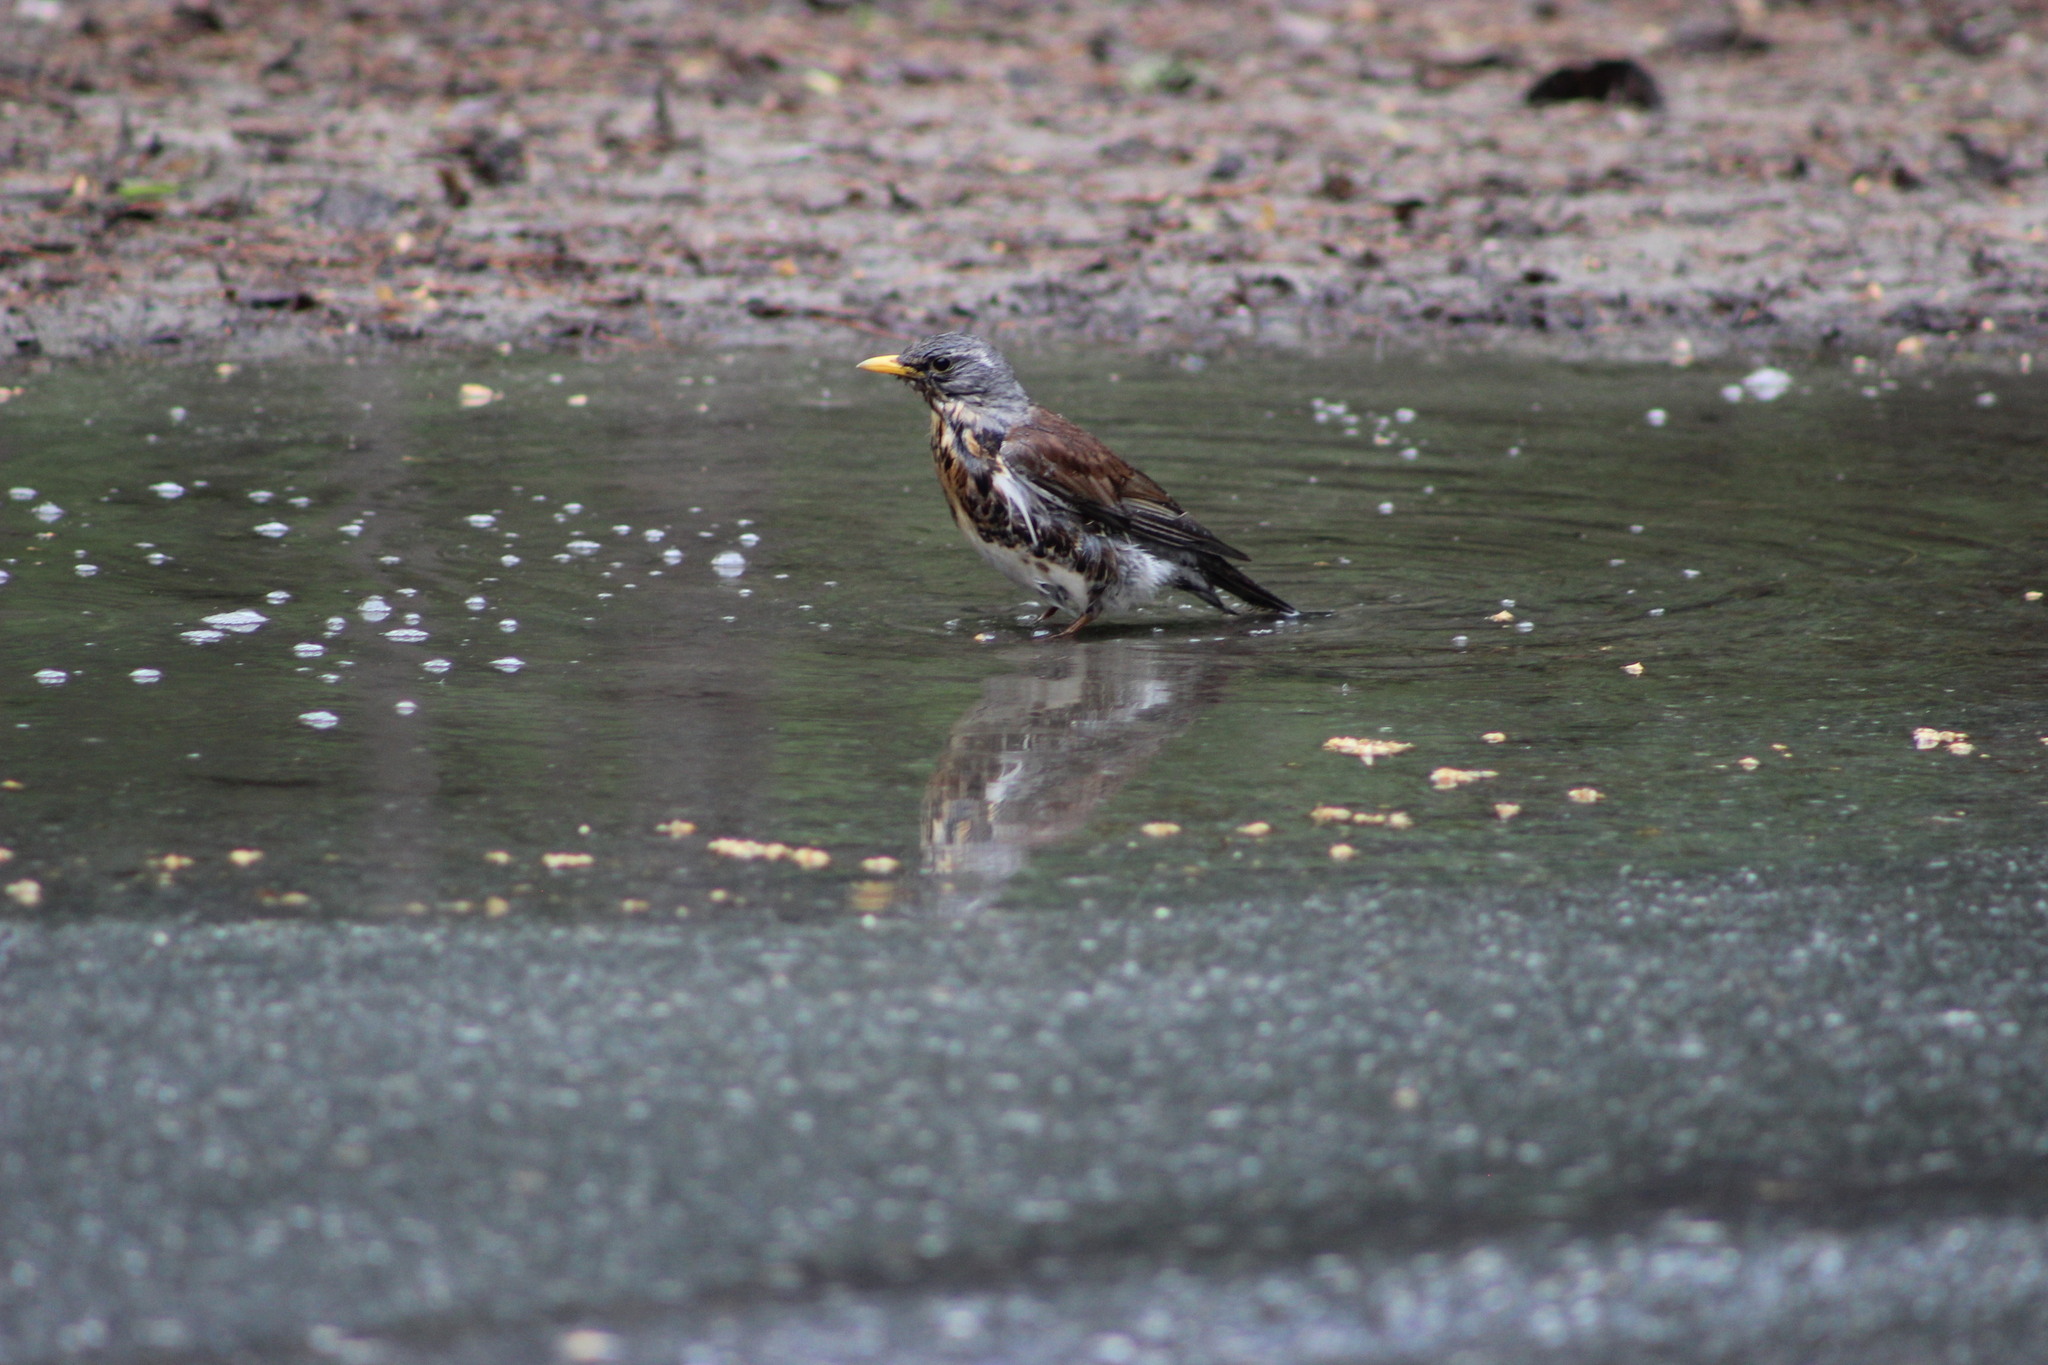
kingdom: Animalia
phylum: Chordata
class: Aves
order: Passeriformes
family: Turdidae
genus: Turdus
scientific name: Turdus pilaris
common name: Fieldfare
